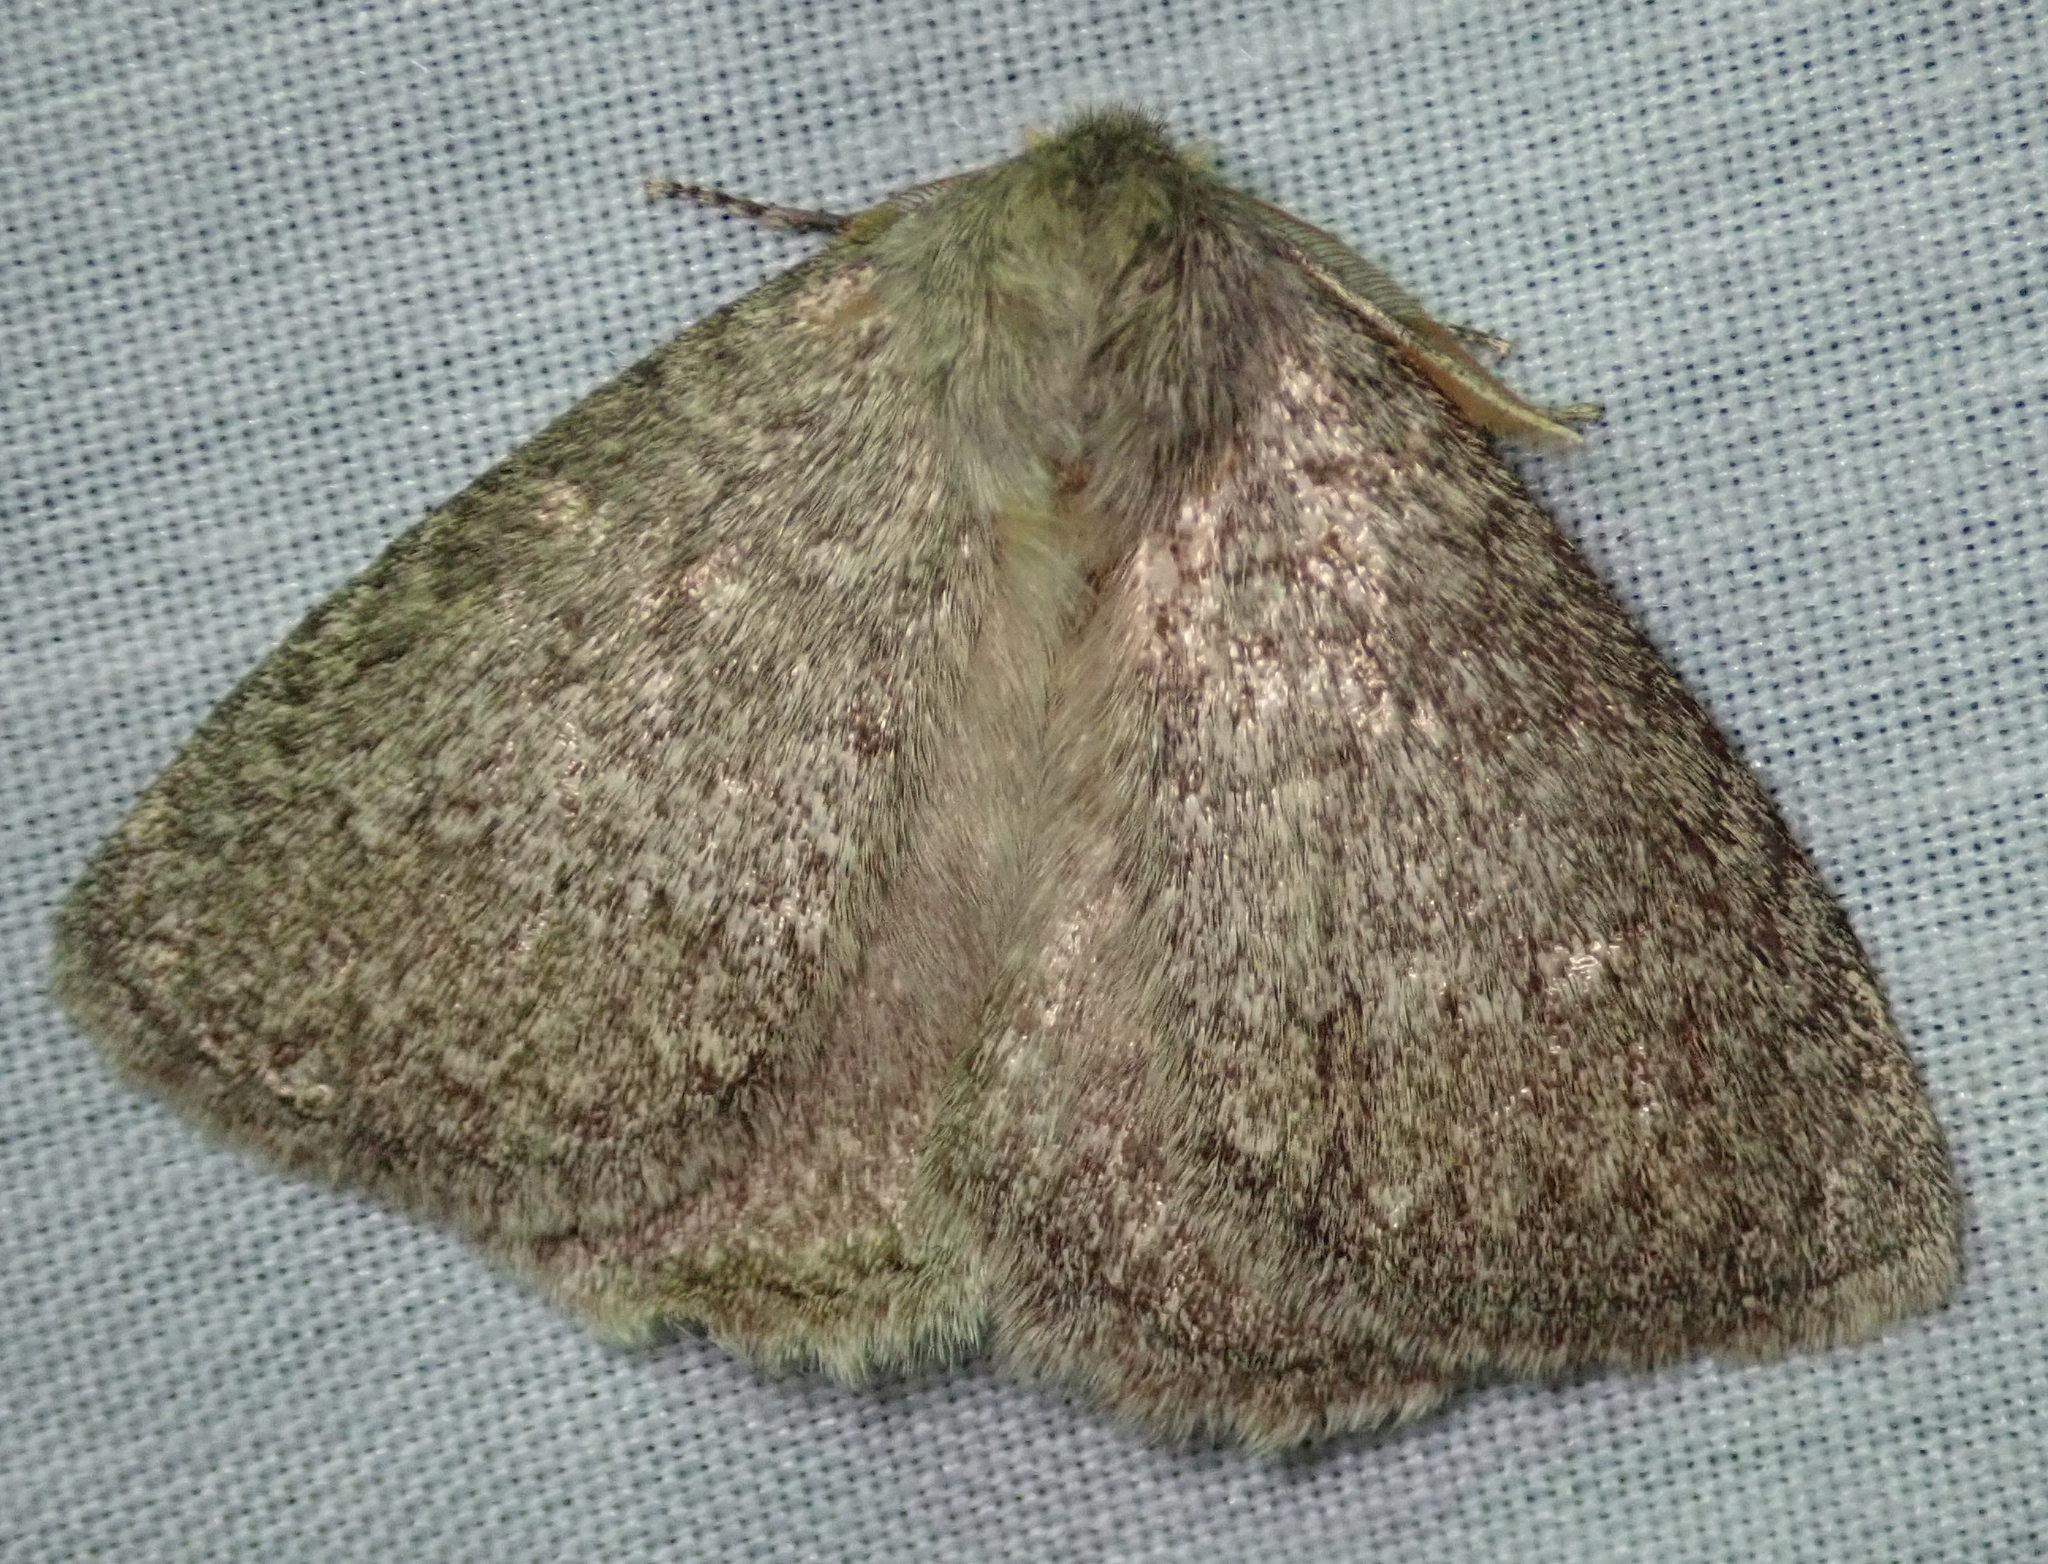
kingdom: Animalia
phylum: Arthropoda
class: Insecta
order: Lepidoptera
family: Eupterotidae
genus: Lichenopteryx
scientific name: Lichenopteryx despecta
